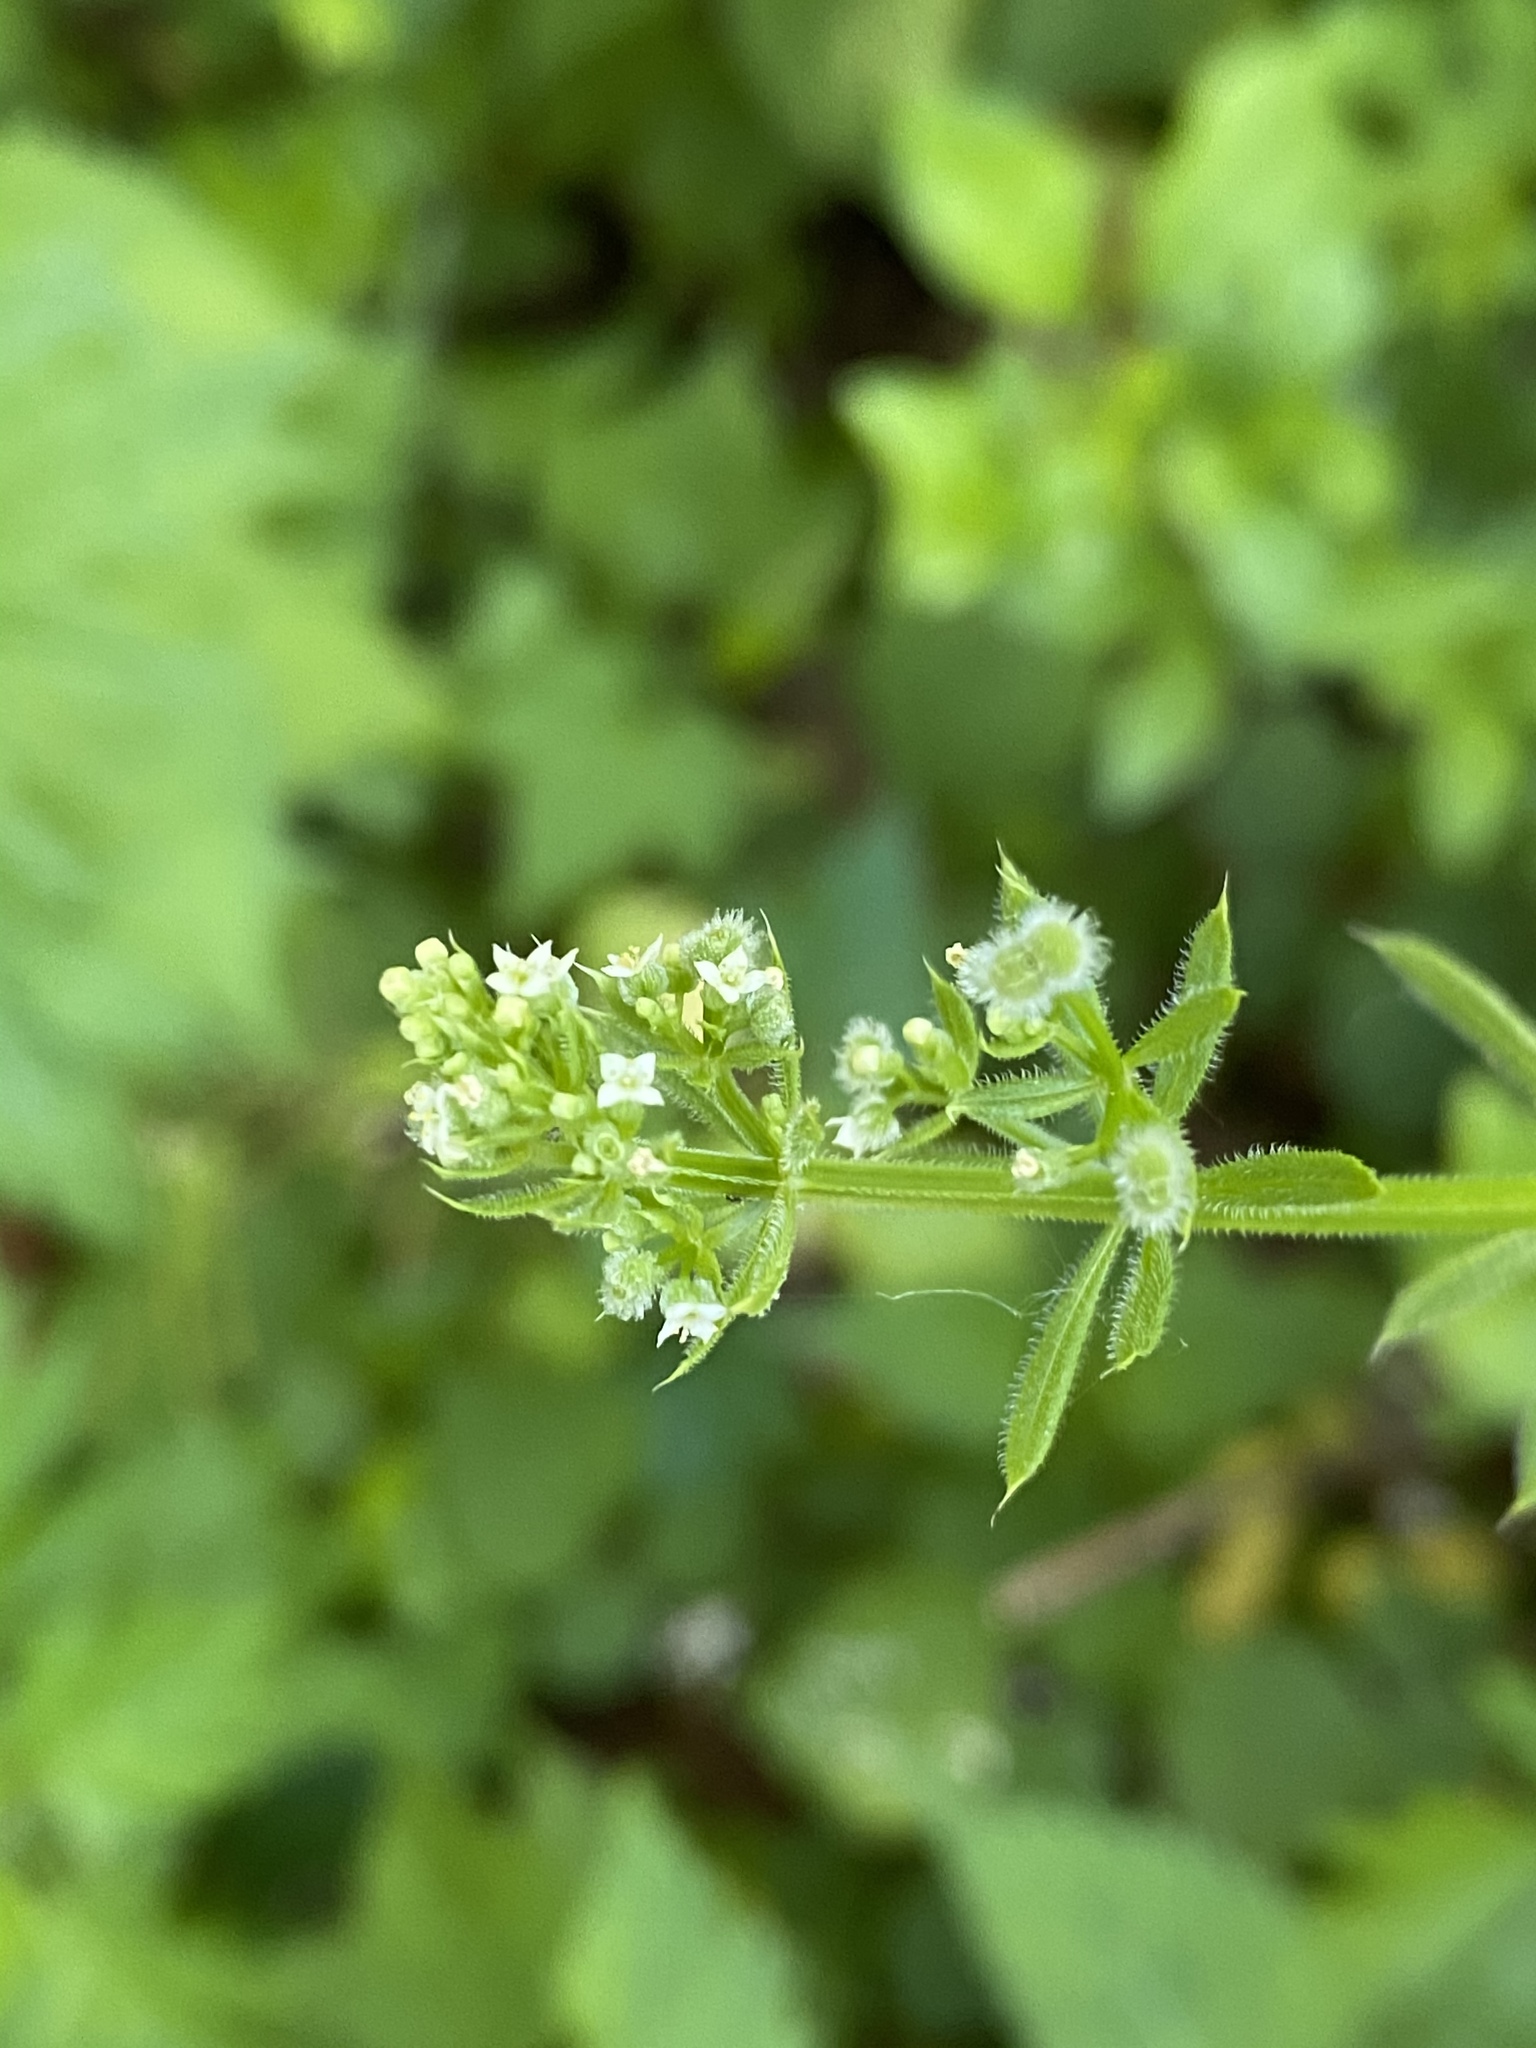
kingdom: Plantae
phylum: Tracheophyta
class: Magnoliopsida
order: Gentianales
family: Rubiaceae
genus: Galium
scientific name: Galium aparine
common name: Cleavers
